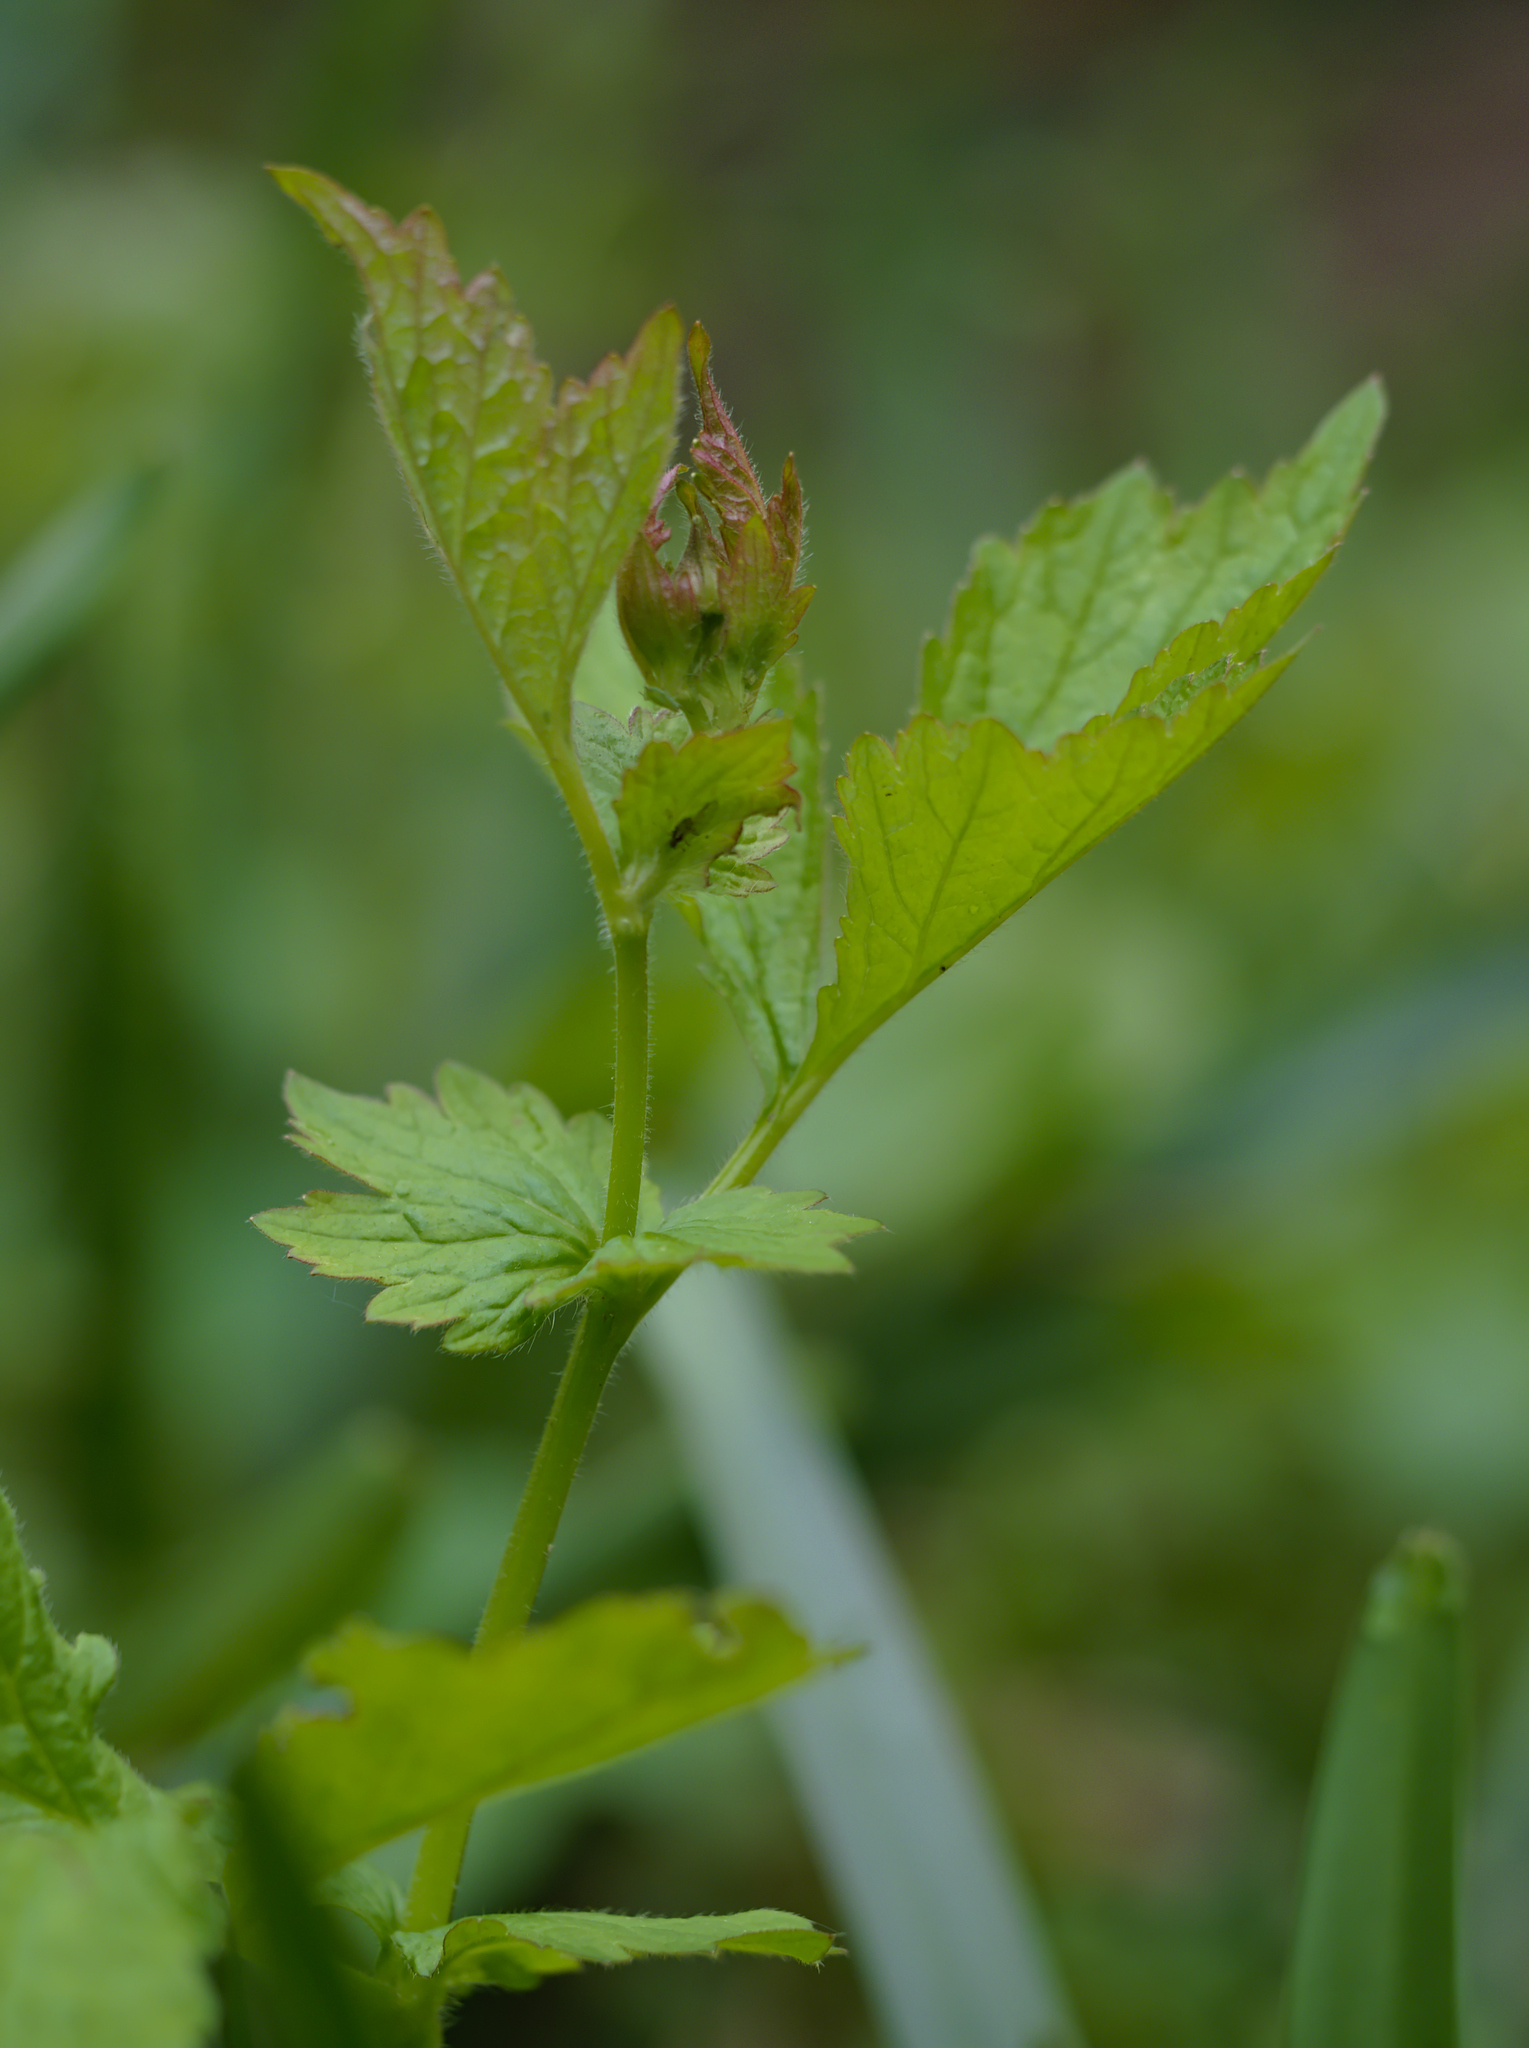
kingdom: Plantae
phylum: Tracheophyta
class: Magnoliopsida
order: Rosales
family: Rosaceae
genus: Geum
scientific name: Geum urbanum
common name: Wood avens
